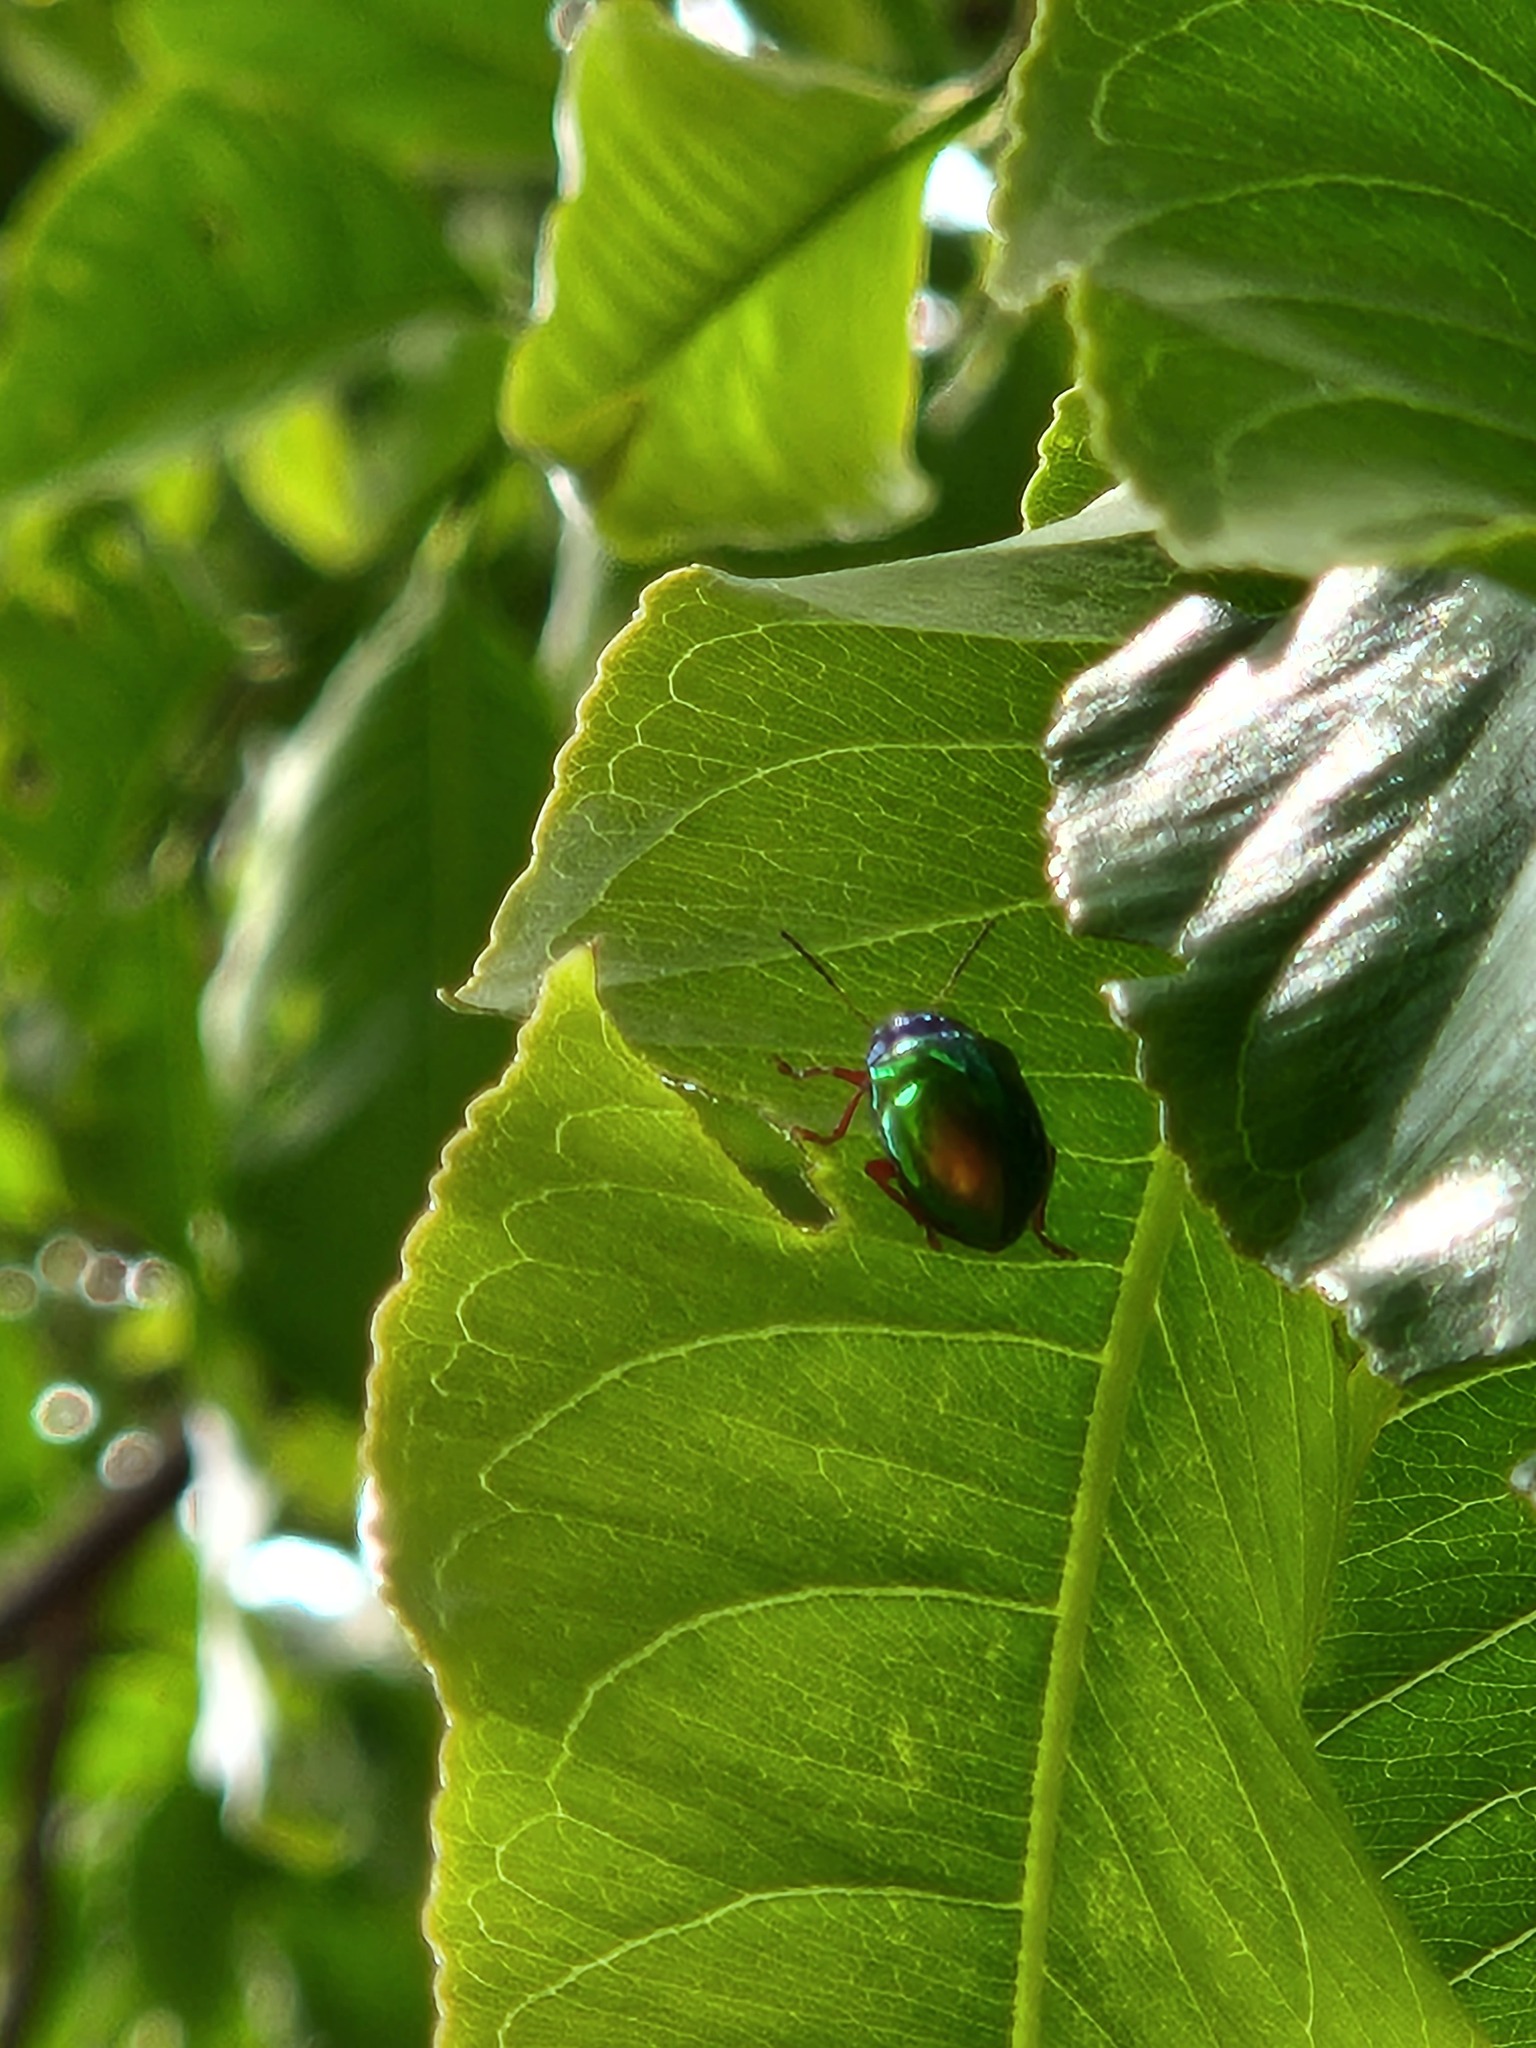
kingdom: Animalia
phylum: Arthropoda
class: Insecta
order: Coleoptera
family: Chrysomelidae
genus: Iphimeis
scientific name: Iphimeis
